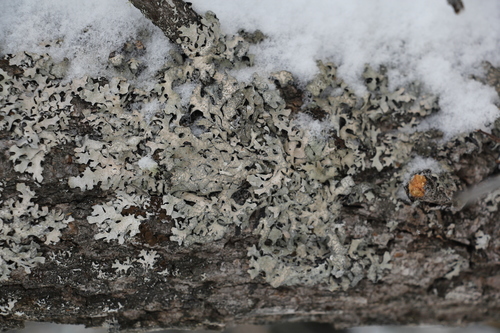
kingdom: Fungi
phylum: Ascomycota
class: Lecanoromycetes
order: Lecanorales
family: Parmeliaceae
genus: Parmelia
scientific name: Parmelia sulcata
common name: Netted shield lichen
